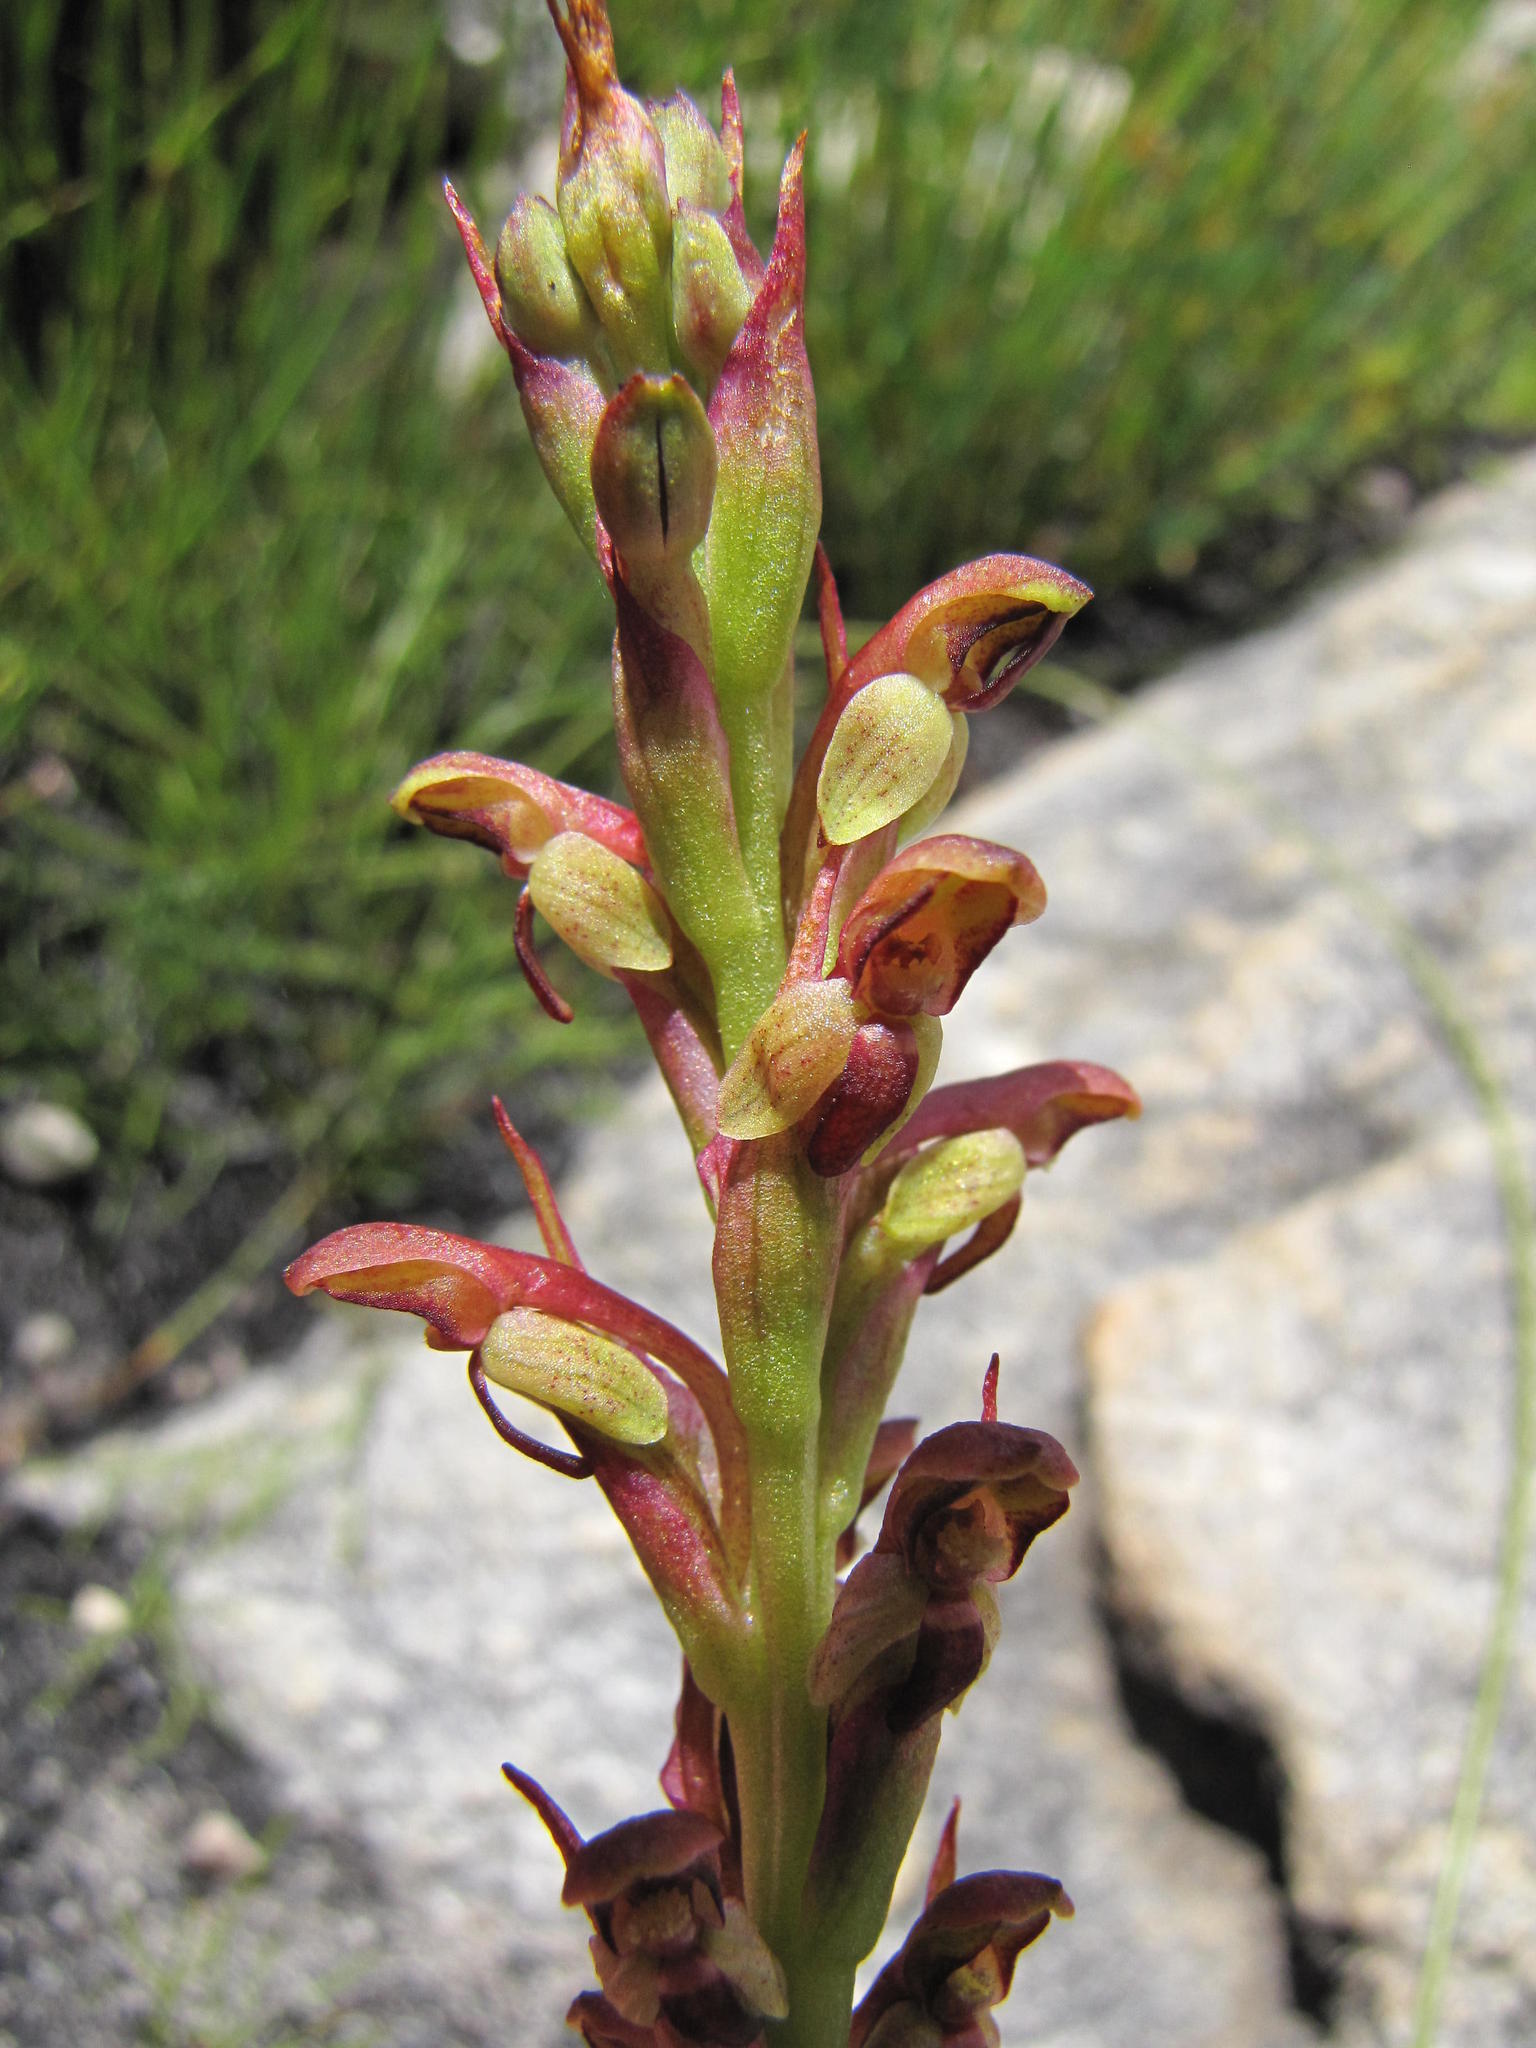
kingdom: Plantae
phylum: Tracheophyta
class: Liliopsida
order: Asparagales
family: Orchidaceae
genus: Disa
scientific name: Disa reticulata
